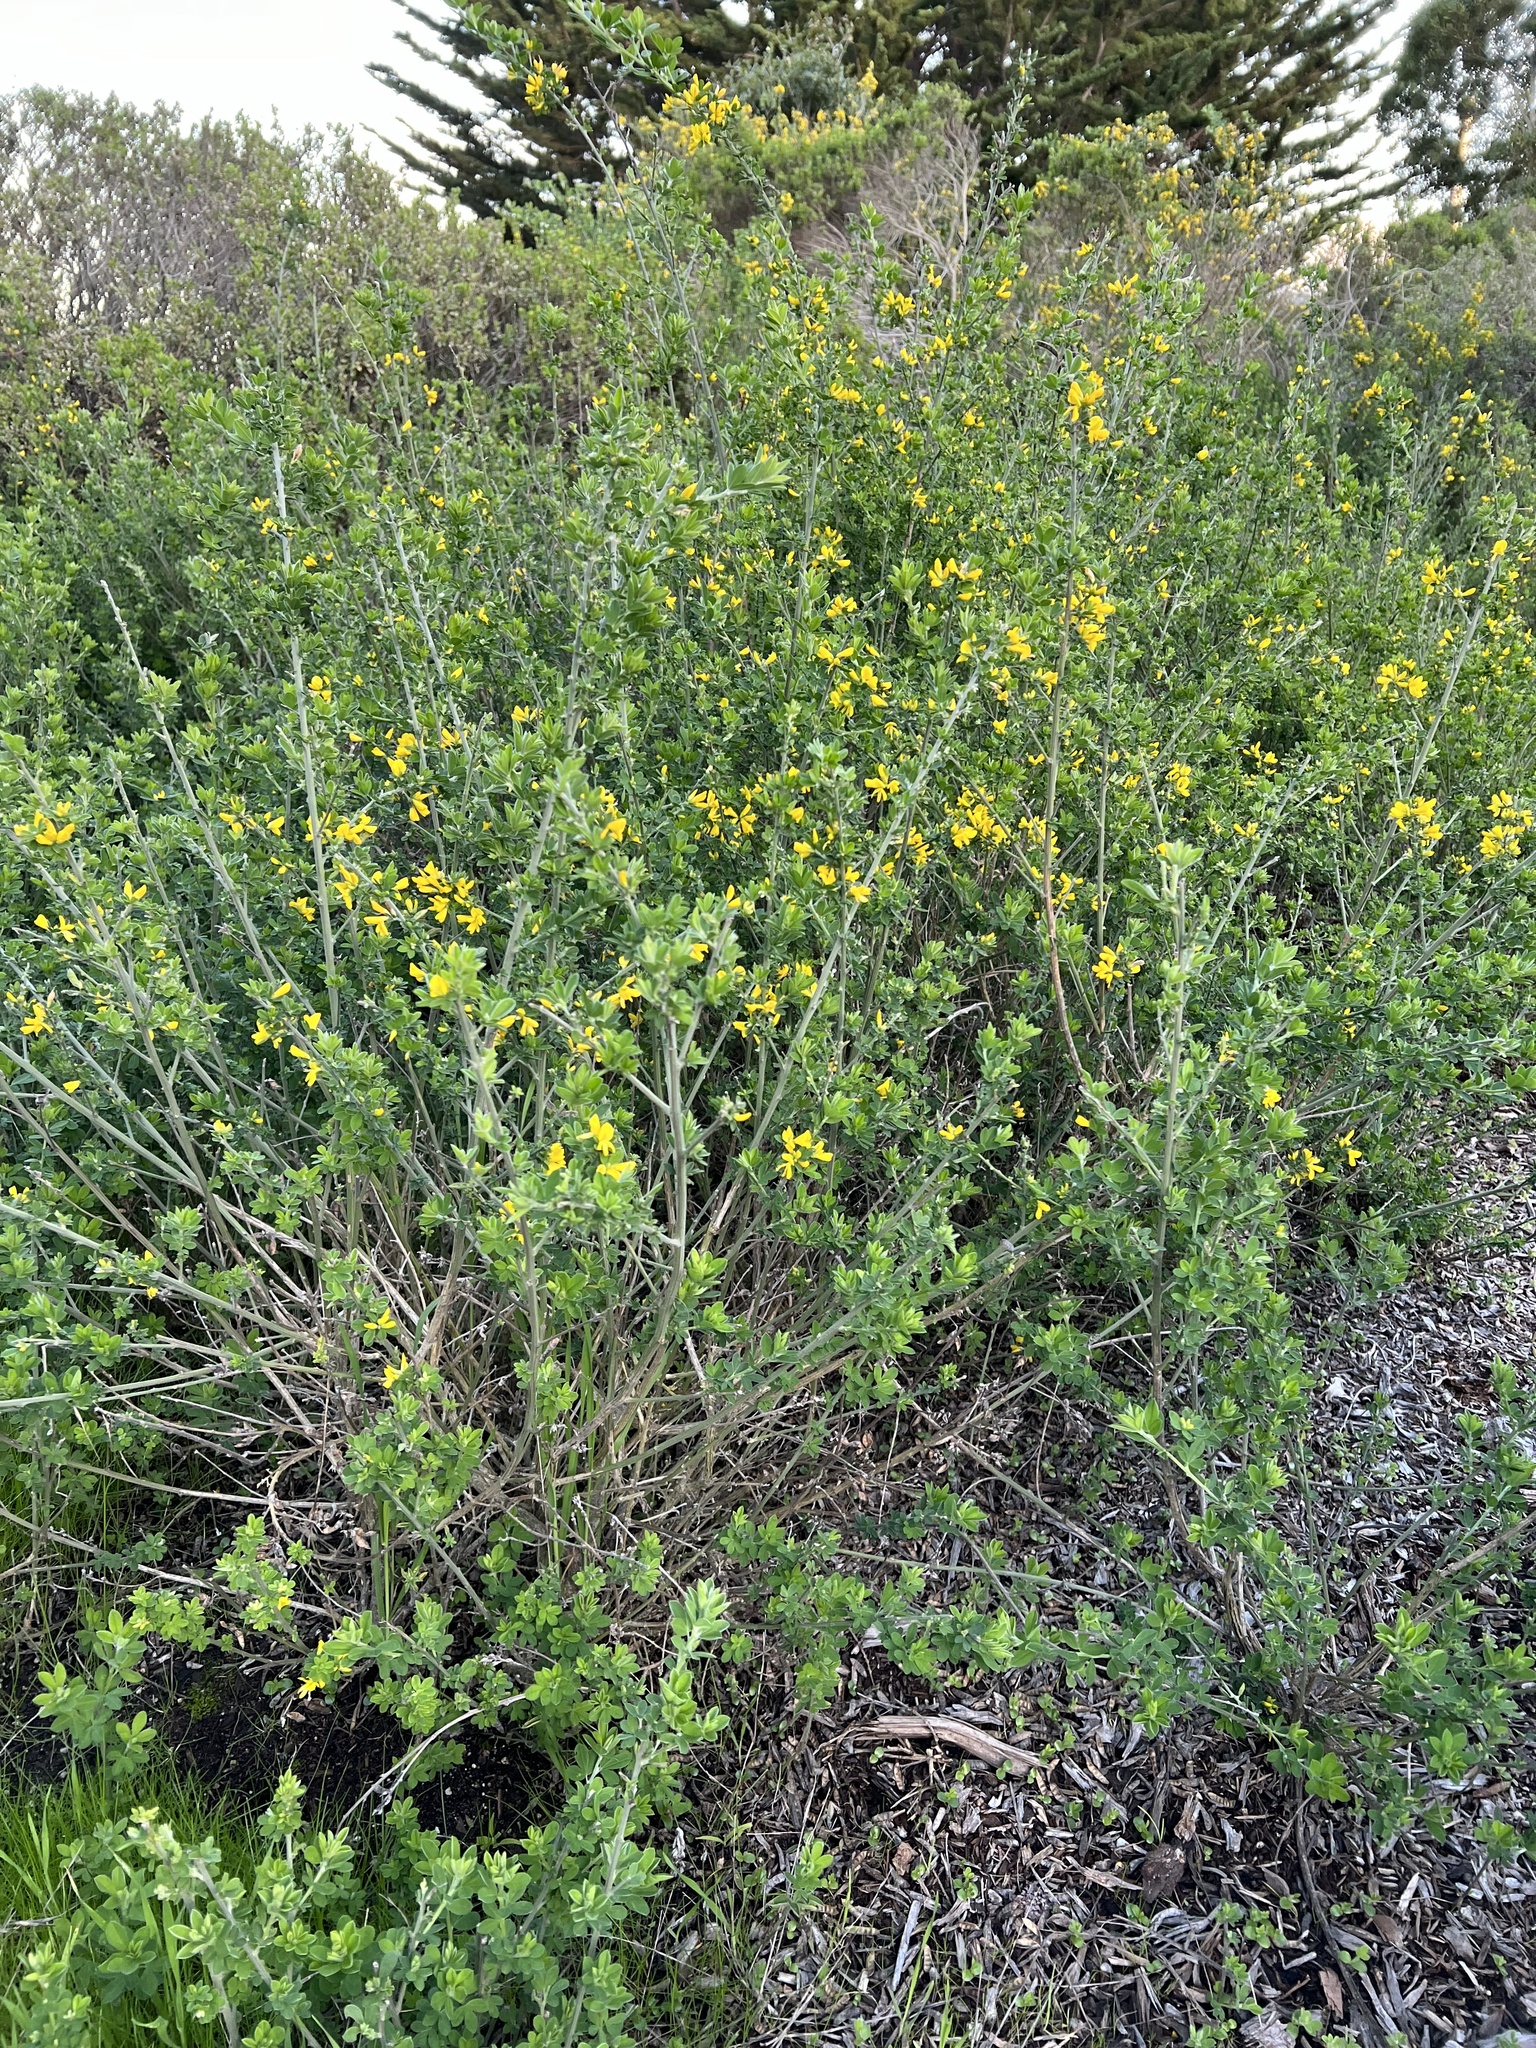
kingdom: Plantae
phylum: Tracheophyta
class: Magnoliopsida
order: Fabales
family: Fabaceae
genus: Genista
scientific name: Genista monspessulana
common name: Montpellier broom
